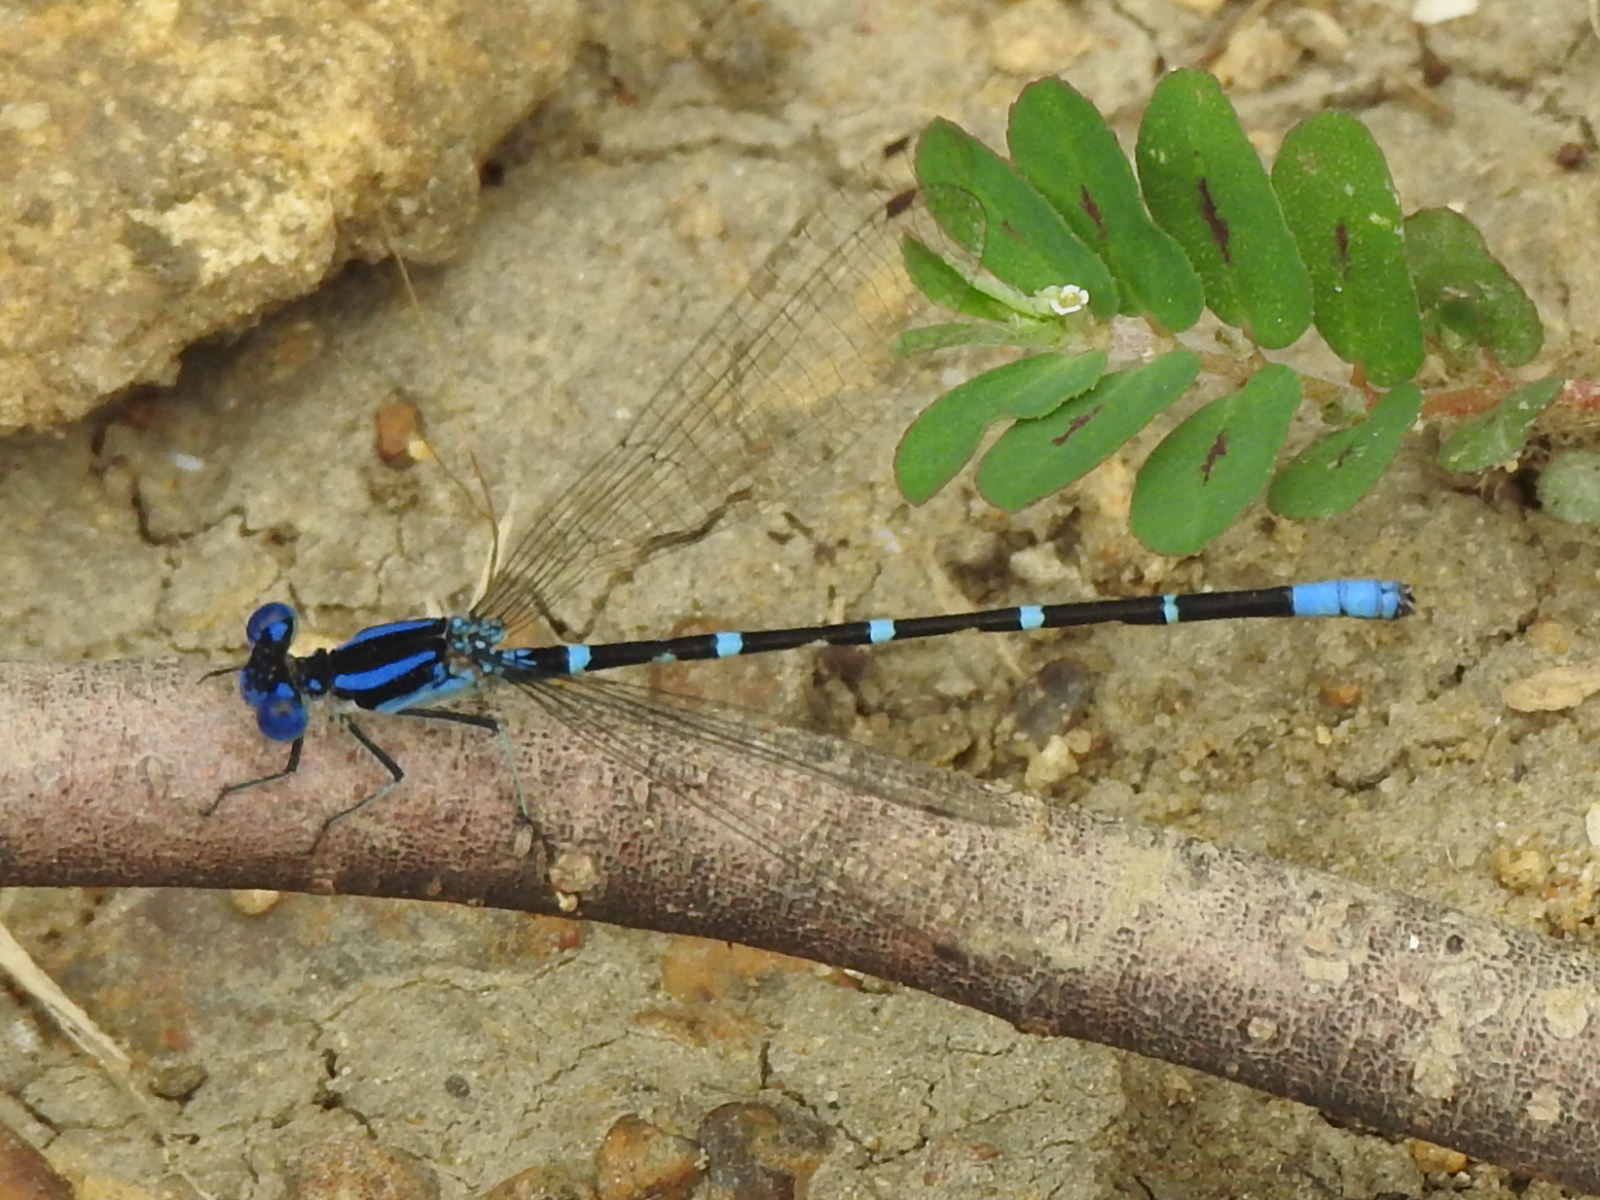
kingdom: Animalia
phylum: Arthropoda
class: Insecta
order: Odonata
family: Coenagrionidae
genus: Argia
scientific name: Argia sedula
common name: Blue-ringed dancer
